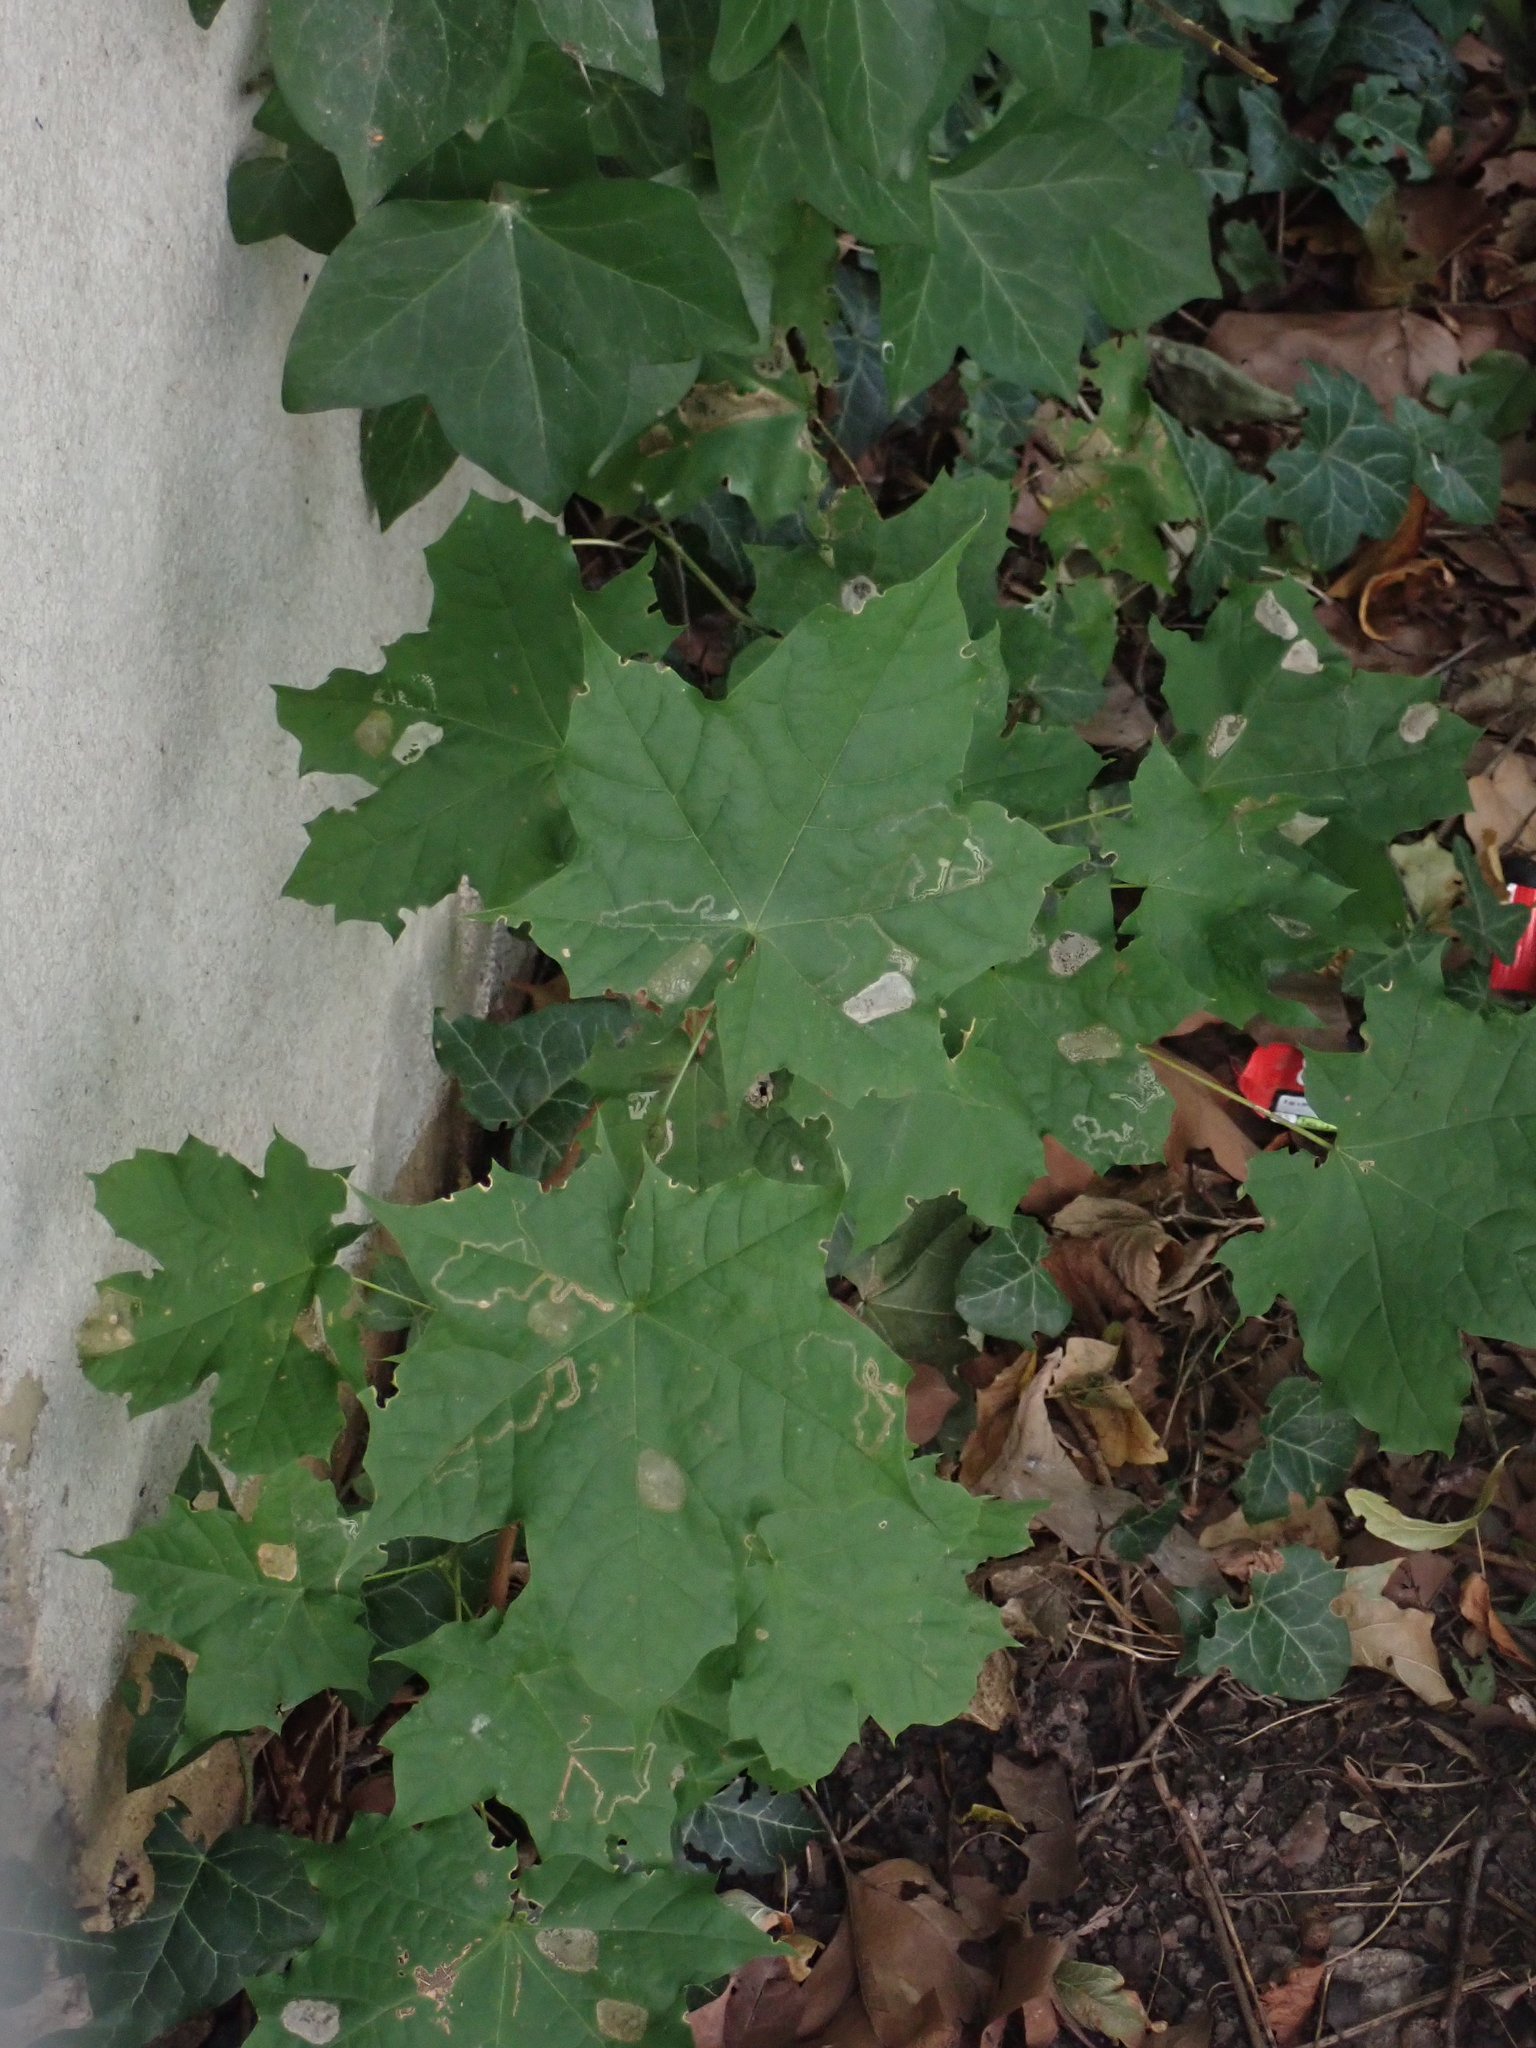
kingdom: Animalia
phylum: Arthropoda
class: Insecta
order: Lepidoptera
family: Gracillariidae
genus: Phyllonorycter
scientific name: Phyllonorycter joannisi
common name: White-bodied midget
